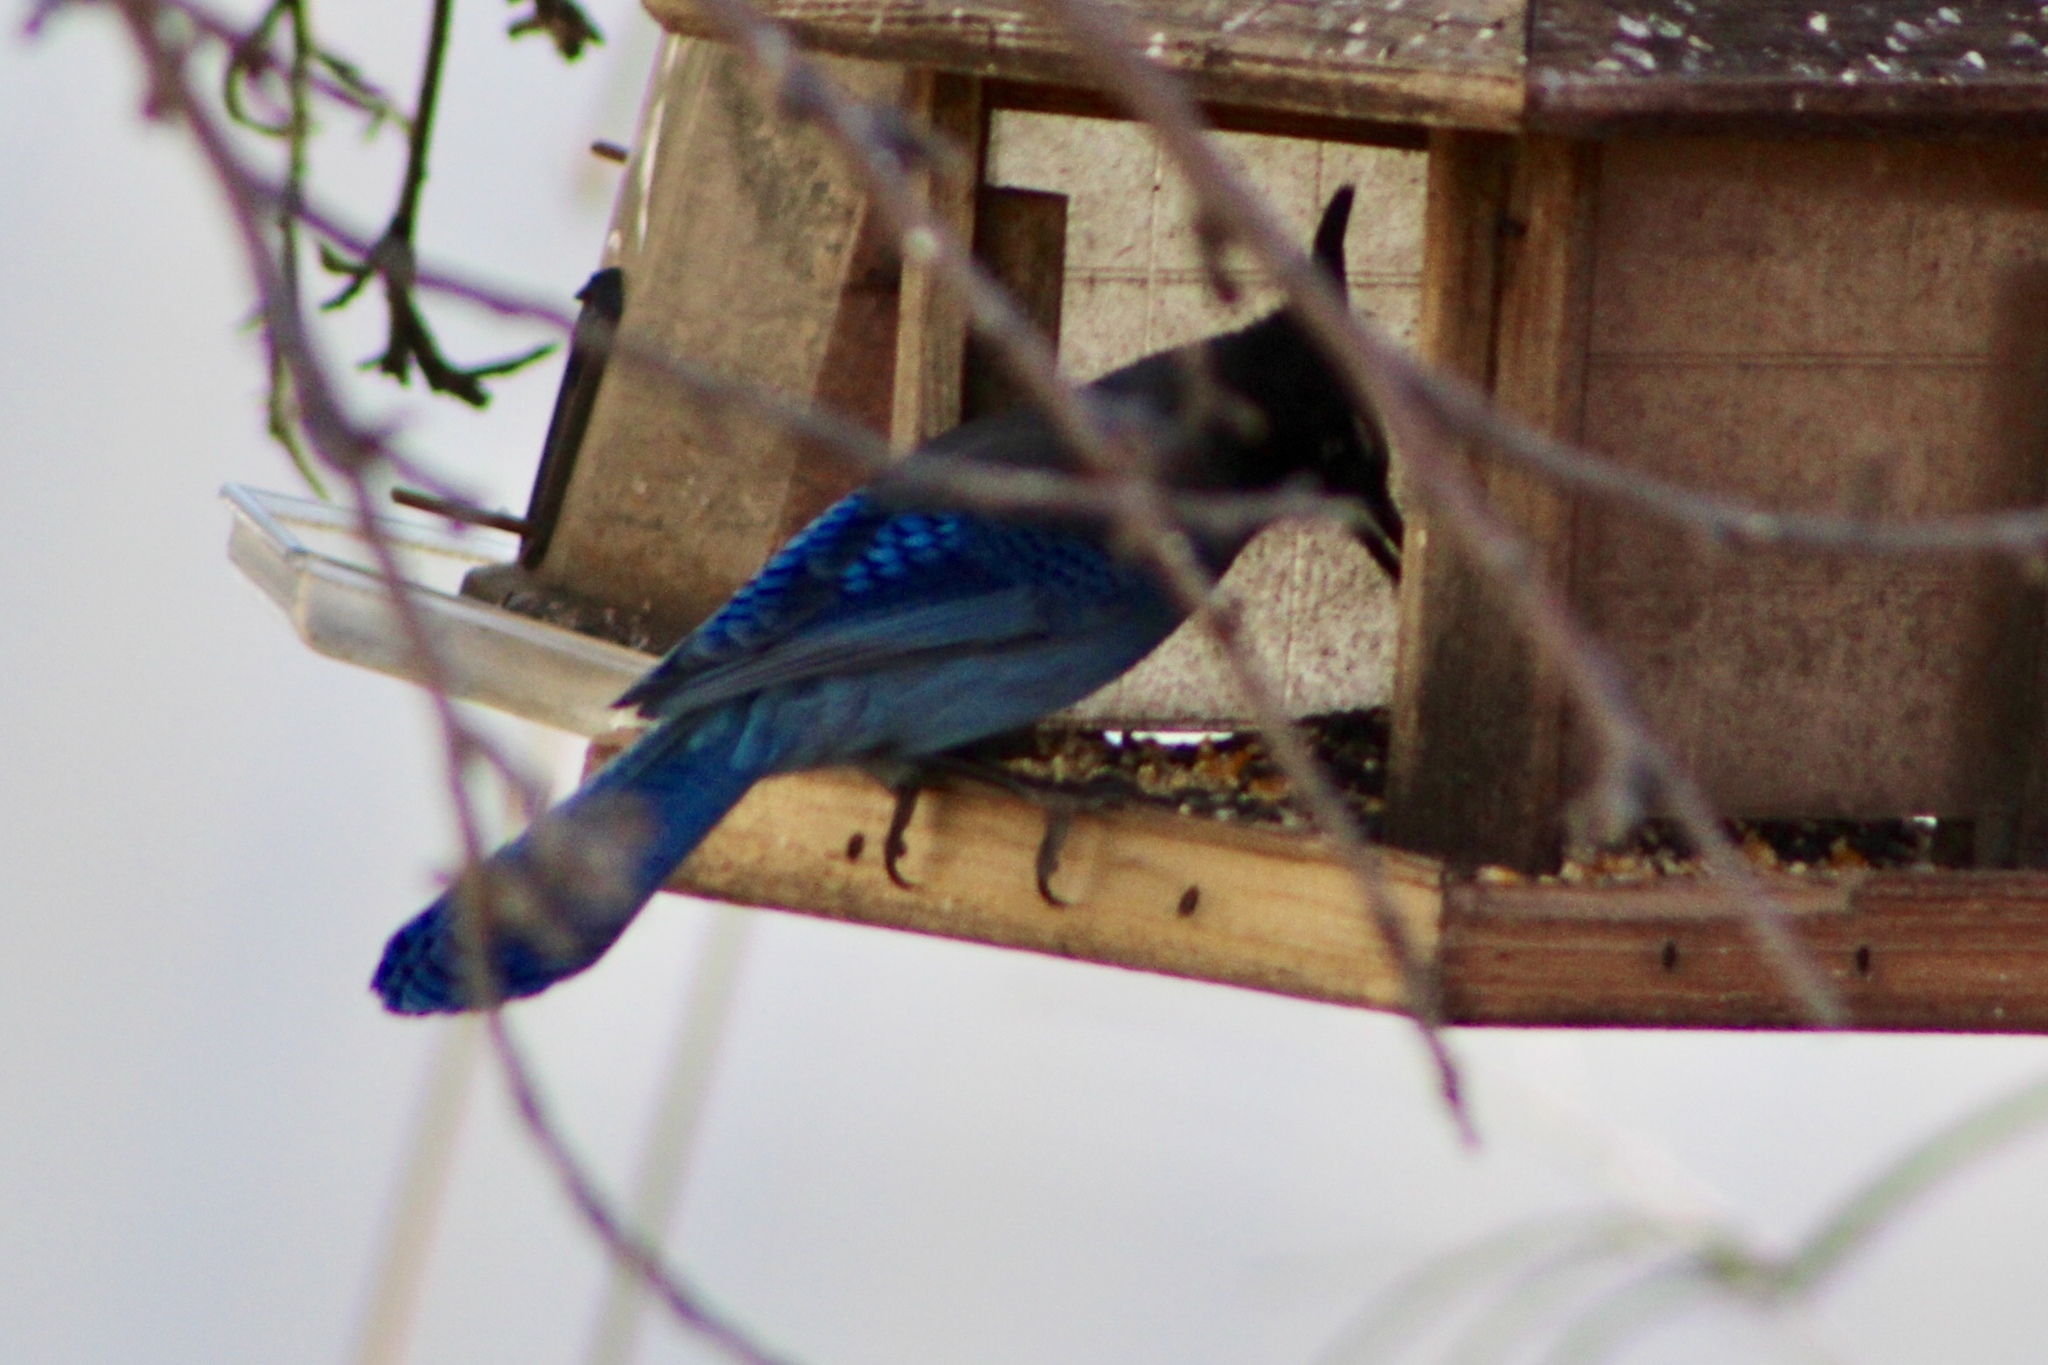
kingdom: Animalia
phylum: Chordata
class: Aves
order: Passeriformes
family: Corvidae
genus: Cyanocitta
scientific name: Cyanocitta stelleri
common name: Steller's jay
